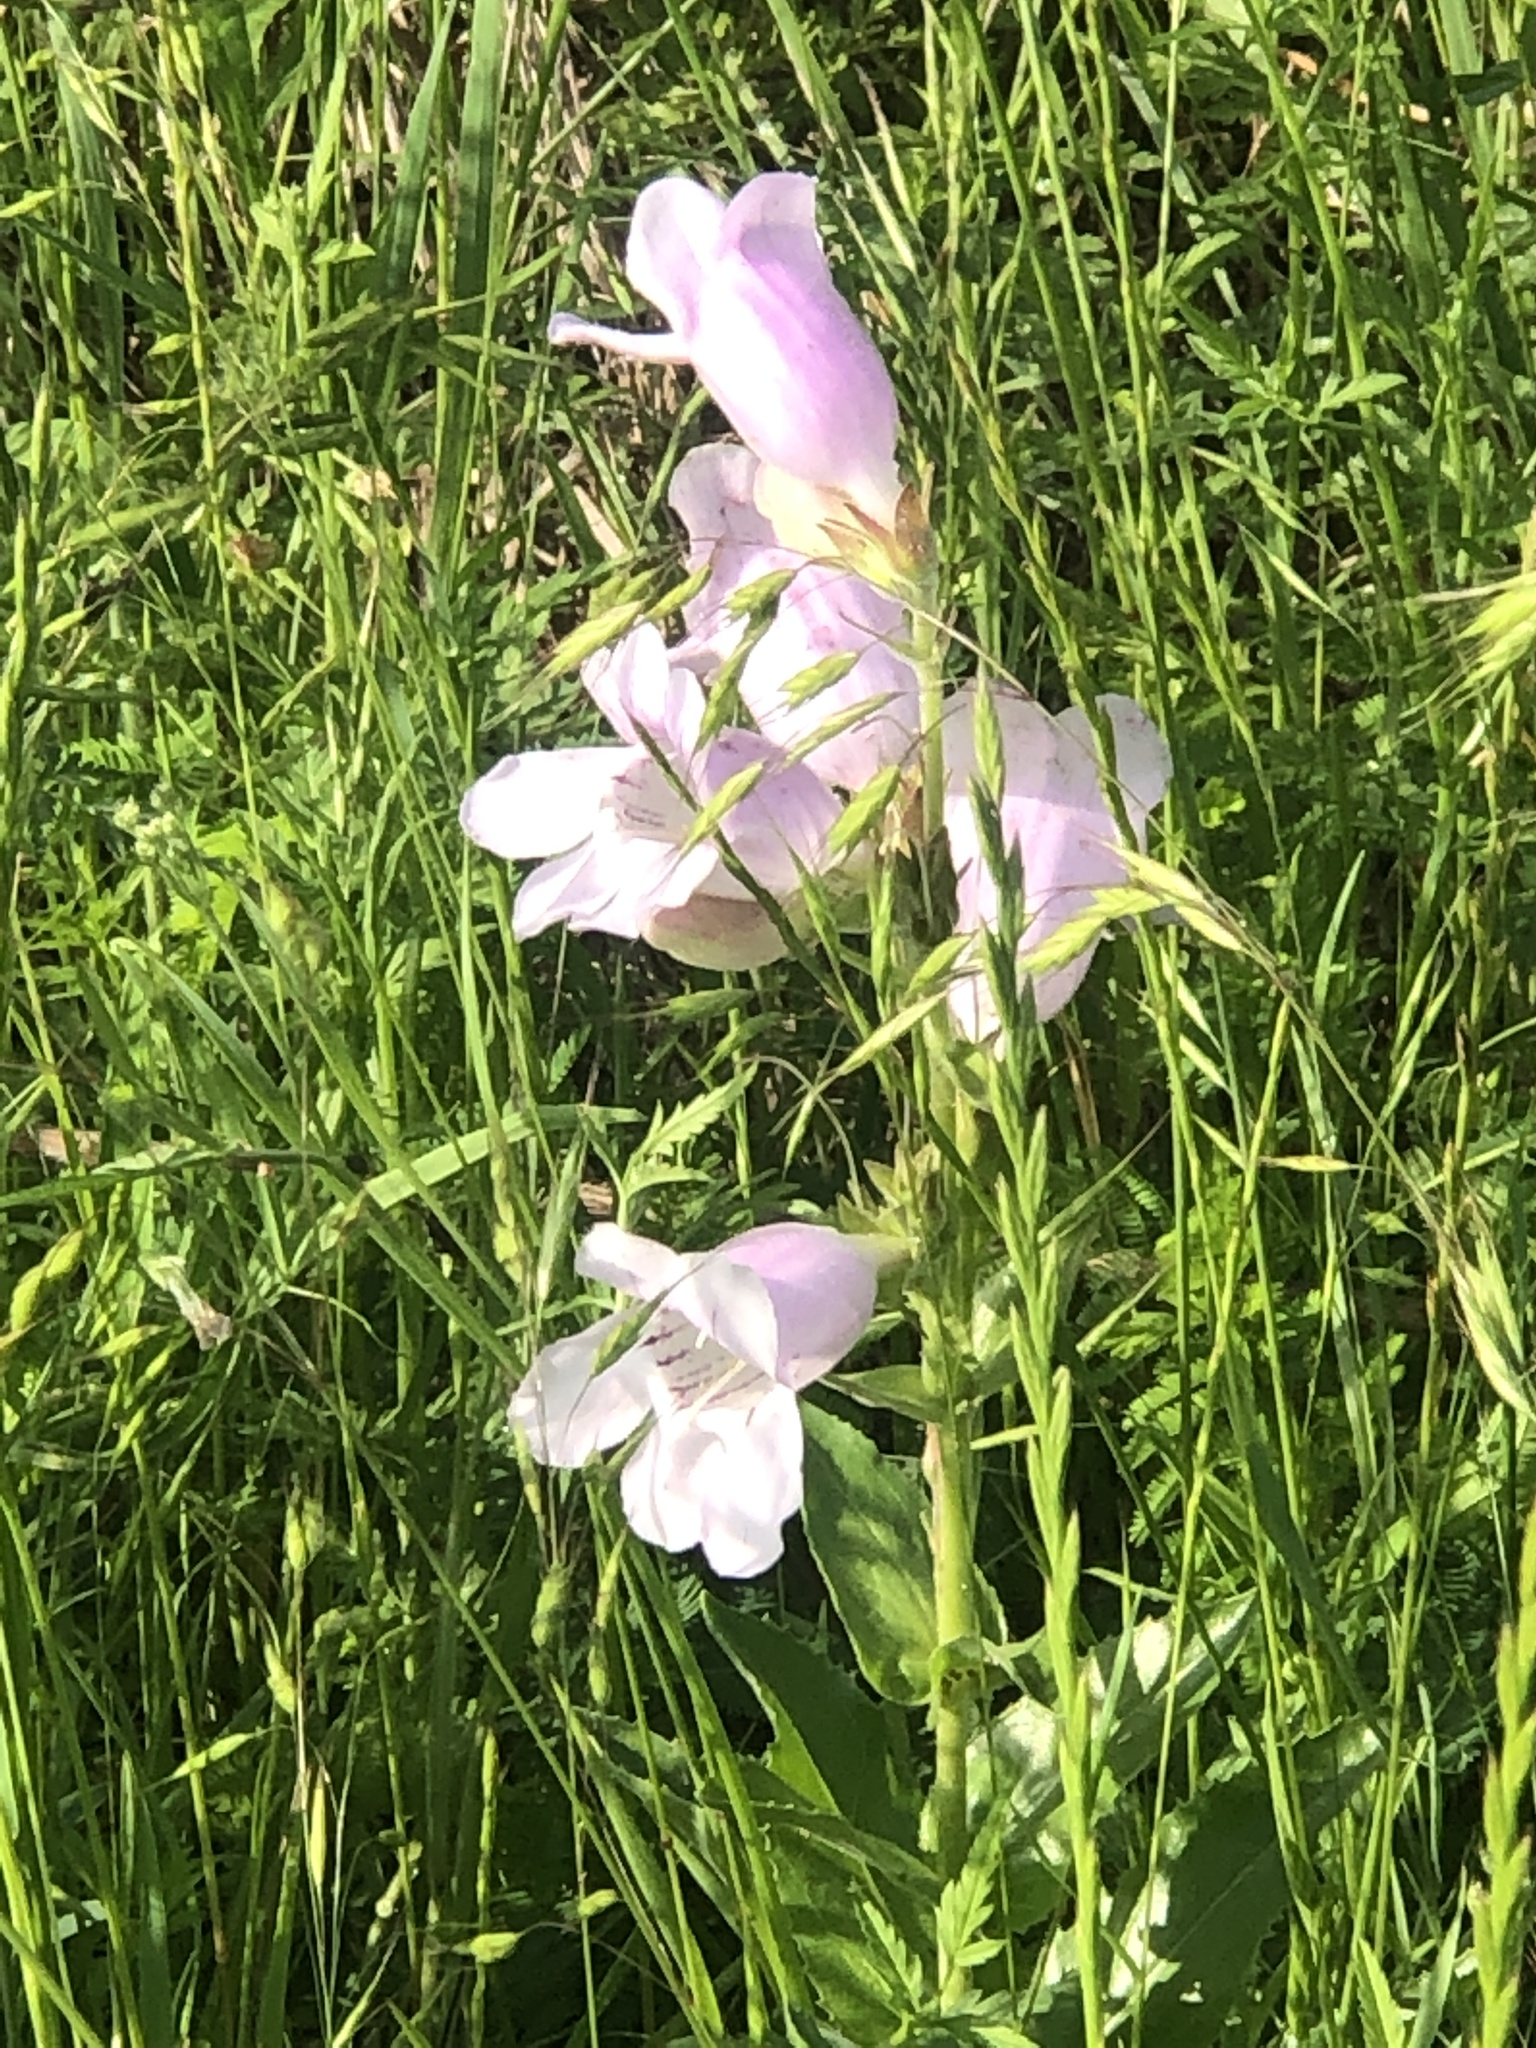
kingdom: Plantae
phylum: Tracheophyta
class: Magnoliopsida
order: Lamiales
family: Plantaginaceae
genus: Penstemon
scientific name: Penstemon cobaea
